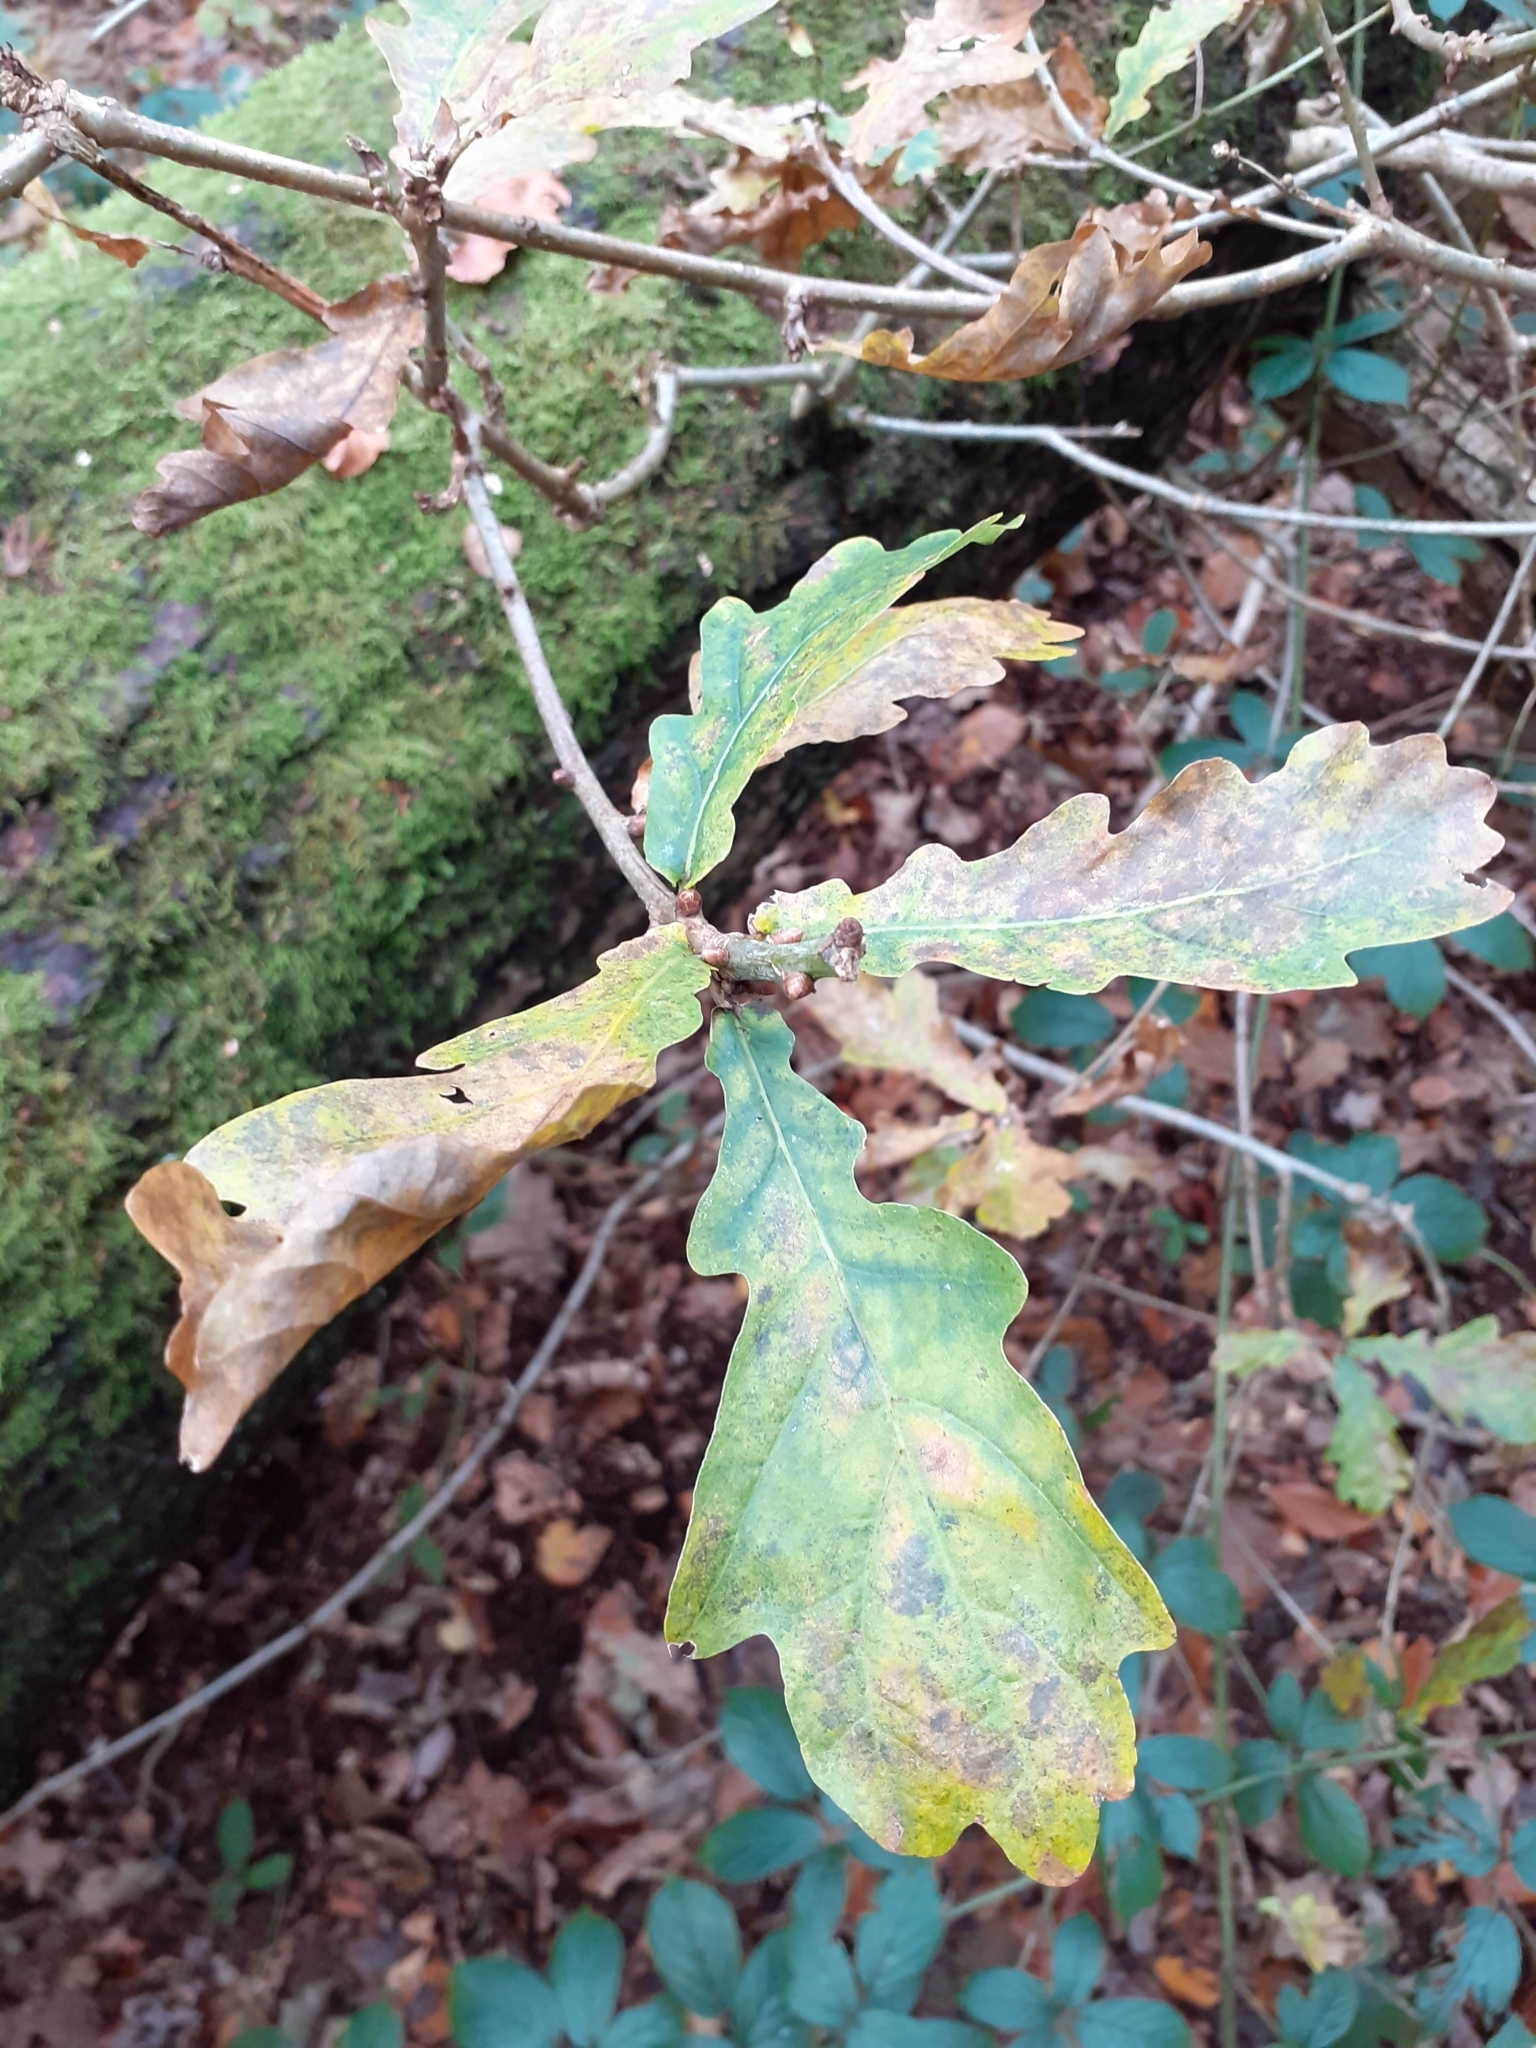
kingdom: Plantae
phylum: Tracheophyta
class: Magnoliopsida
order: Fagales
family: Fagaceae
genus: Quercus
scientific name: Quercus robur
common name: Pedunculate oak
